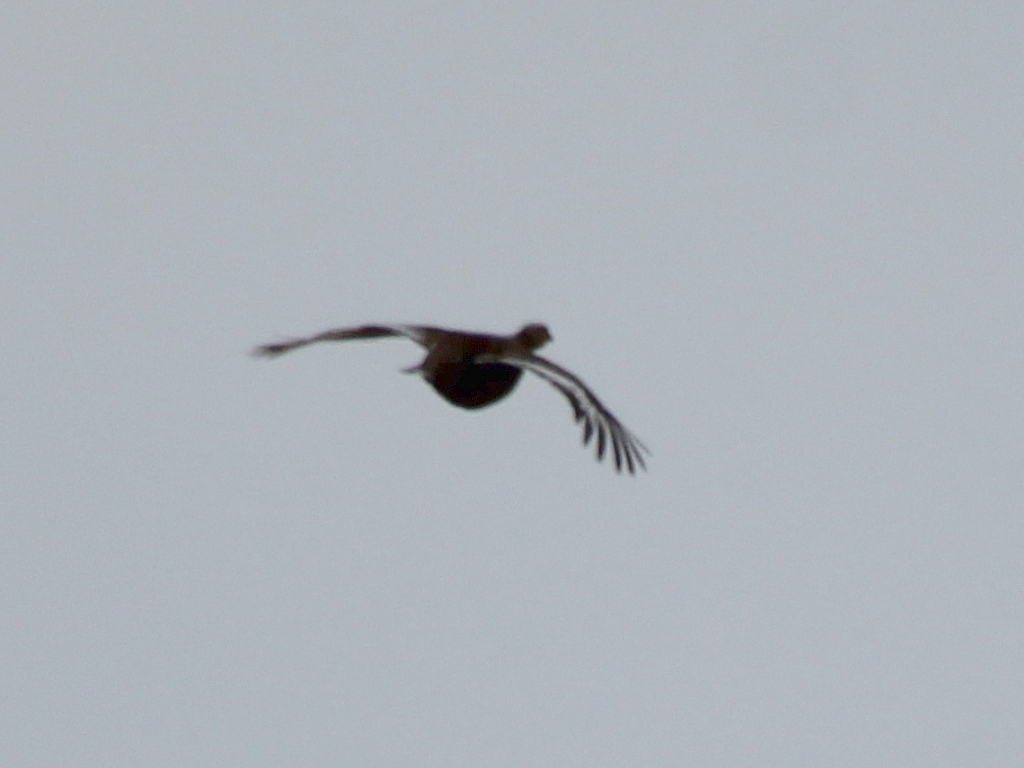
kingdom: Animalia
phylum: Chordata
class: Aves
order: Galliformes
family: Phasianidae
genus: Lyrurus
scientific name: Lyrurus tetrix
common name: Black grouse
